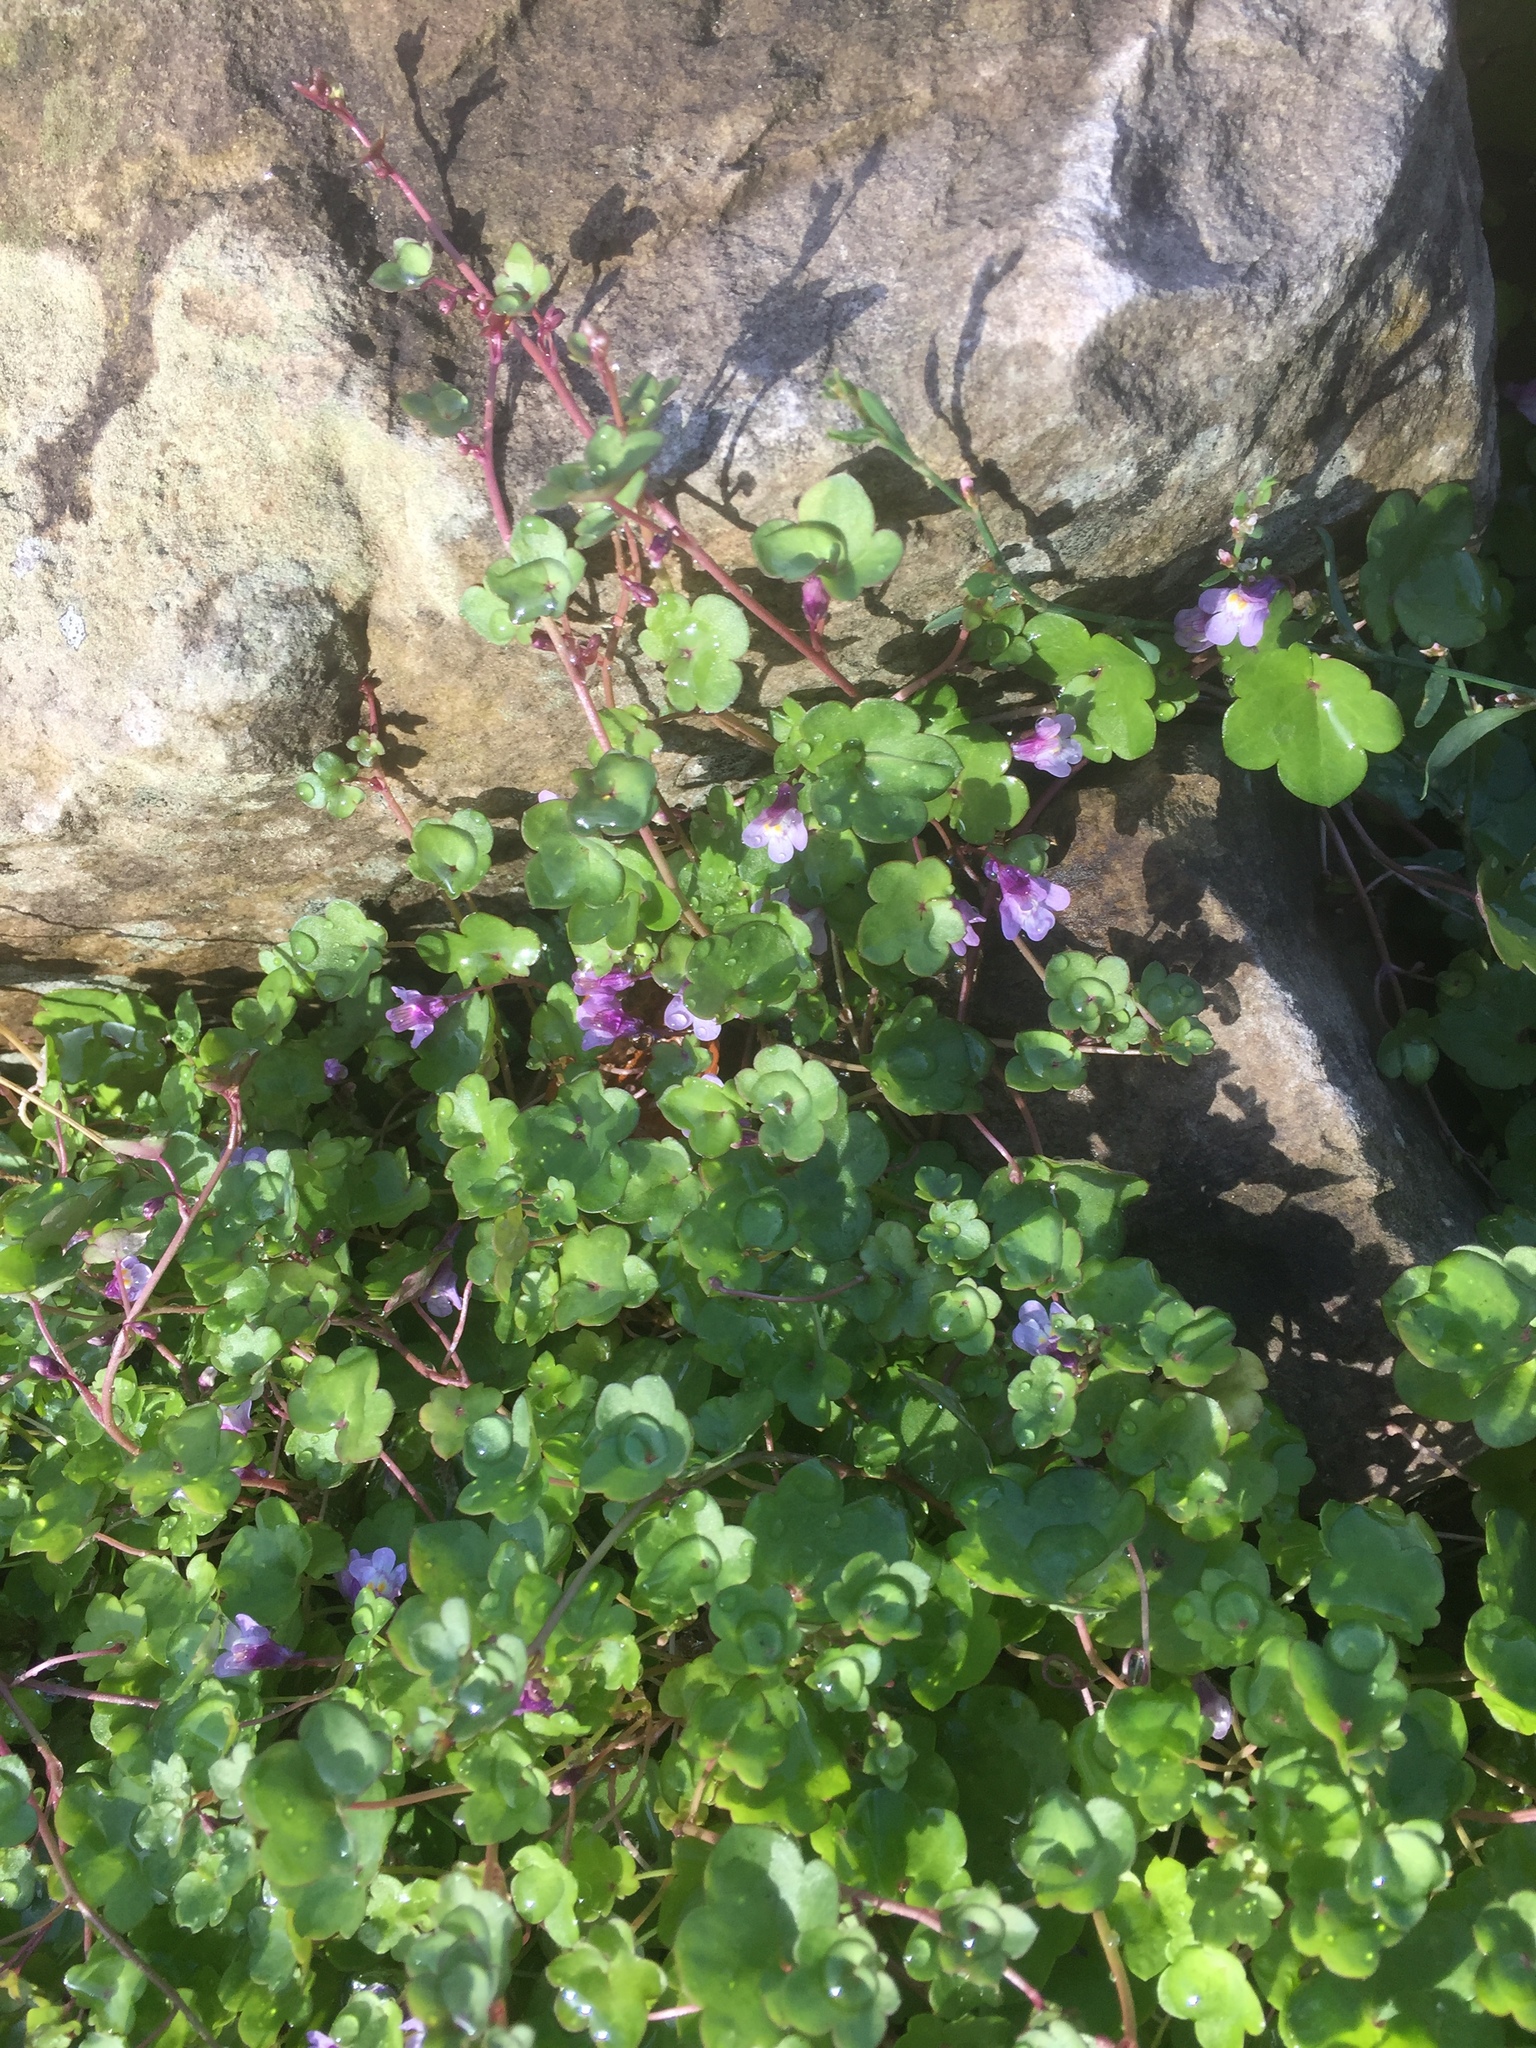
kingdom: Plantae
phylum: Tracheophyta
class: Magnoliopsida
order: Lamiales
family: Plantaginaceae
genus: Cymbalaria
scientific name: Cymbalaria muralis
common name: Ivy-leaved toadflax
